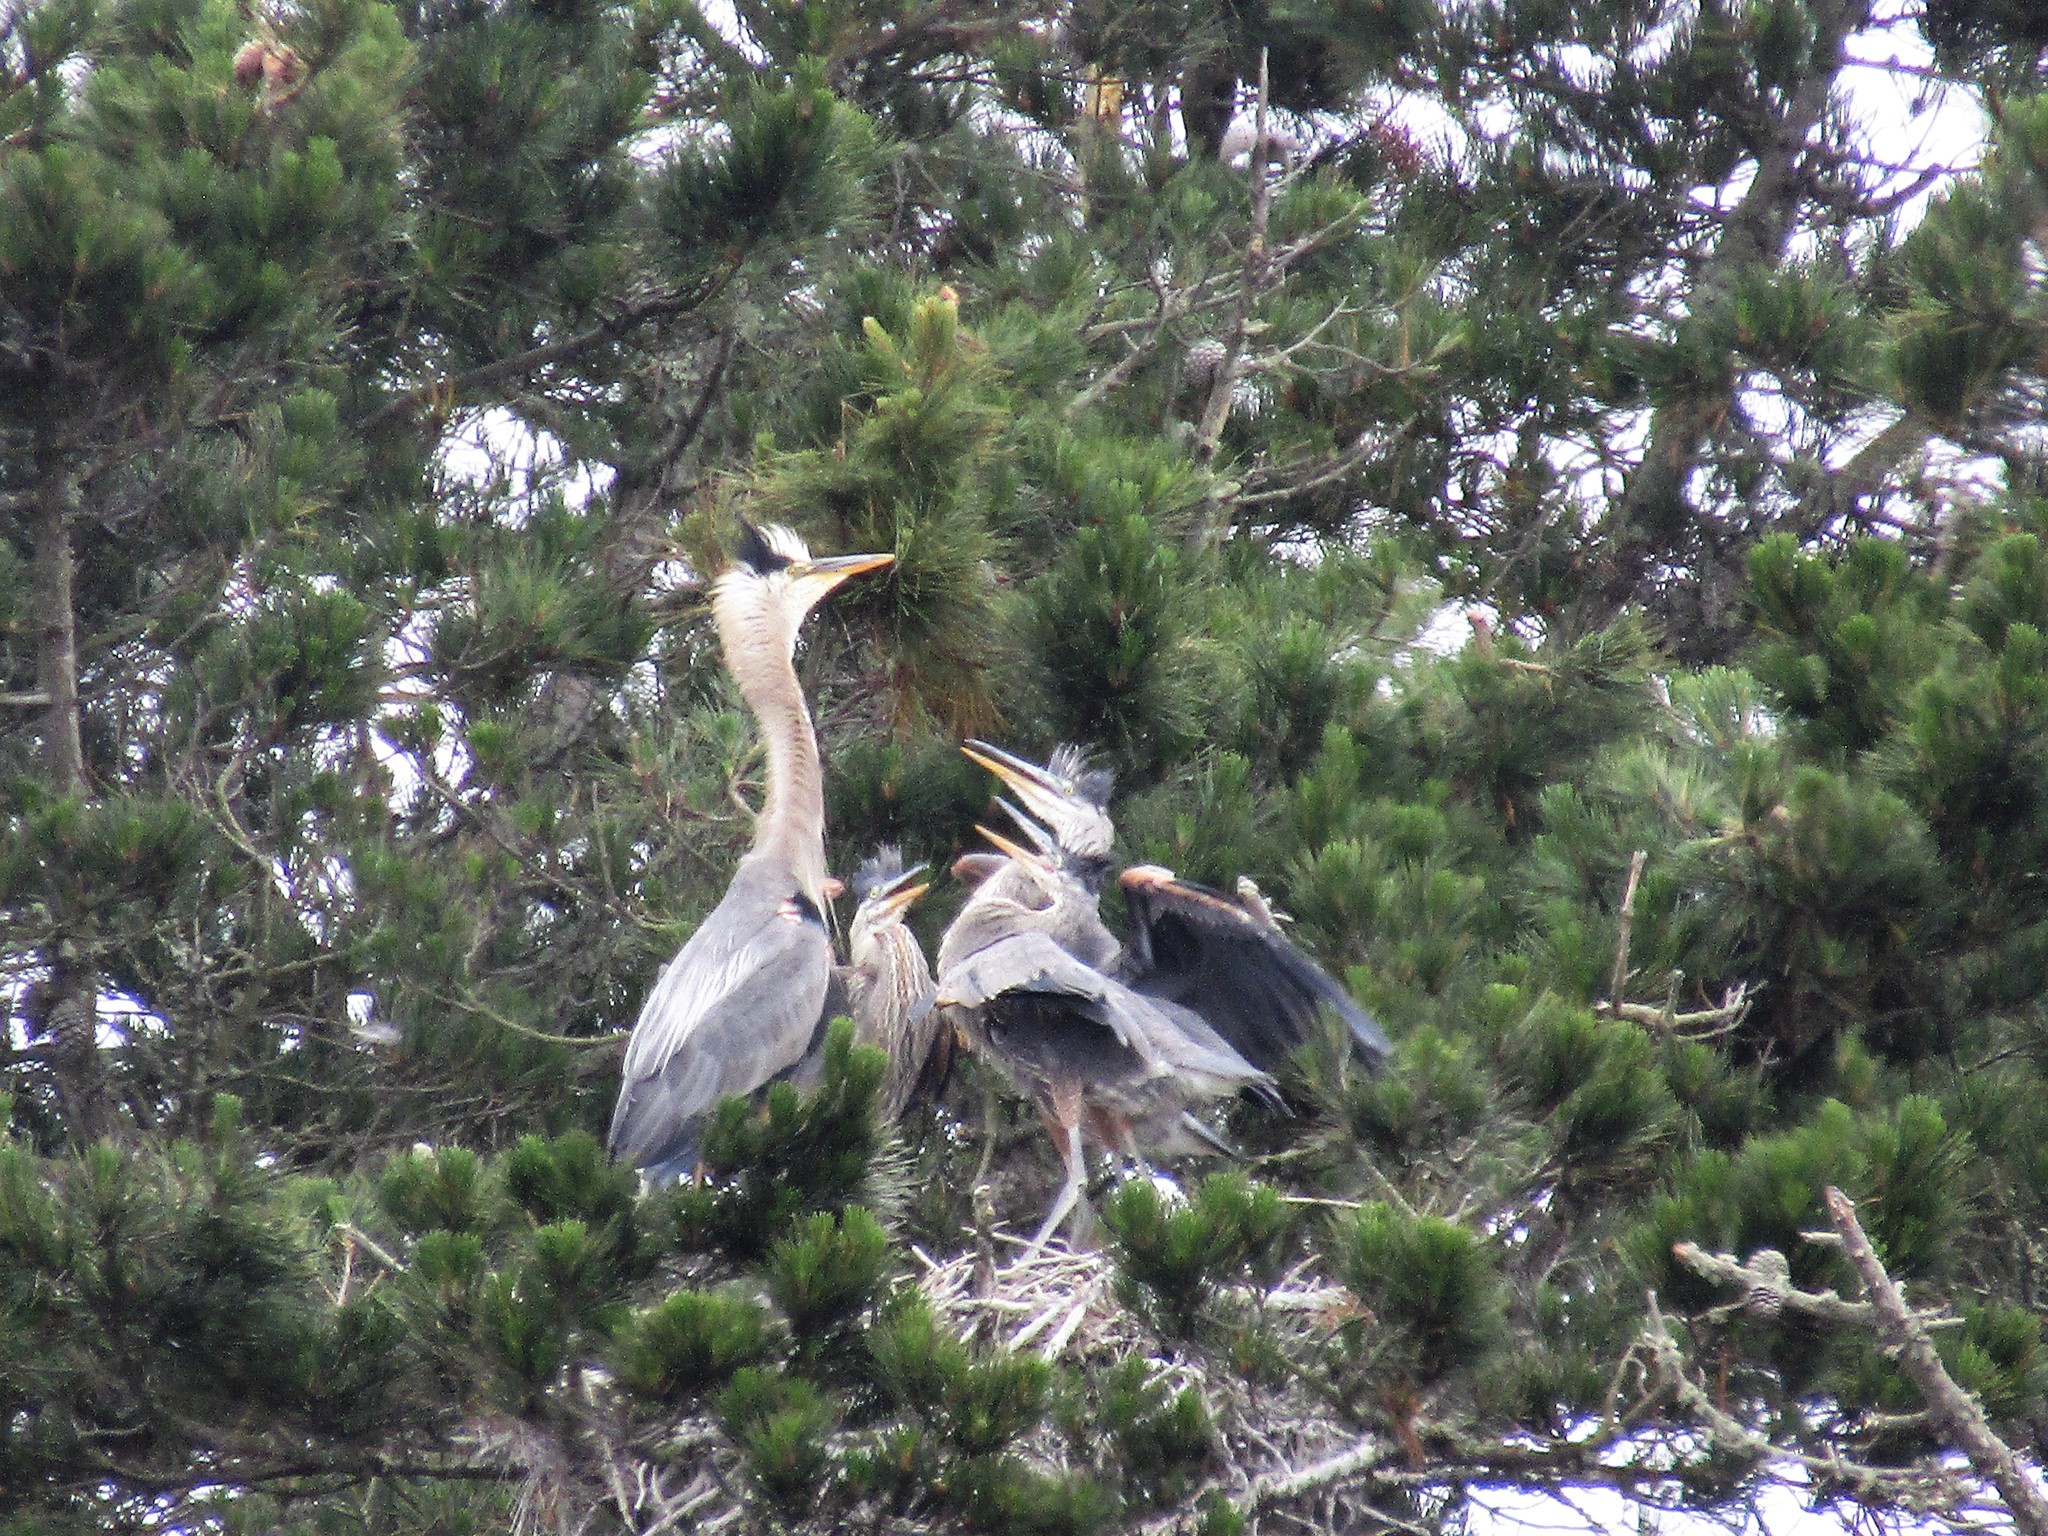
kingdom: Animalia
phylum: Chordata
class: Aves
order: Pelecaniformes
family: Ardeidae
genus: Ardea
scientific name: Ardea herodias
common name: Great blue heron
